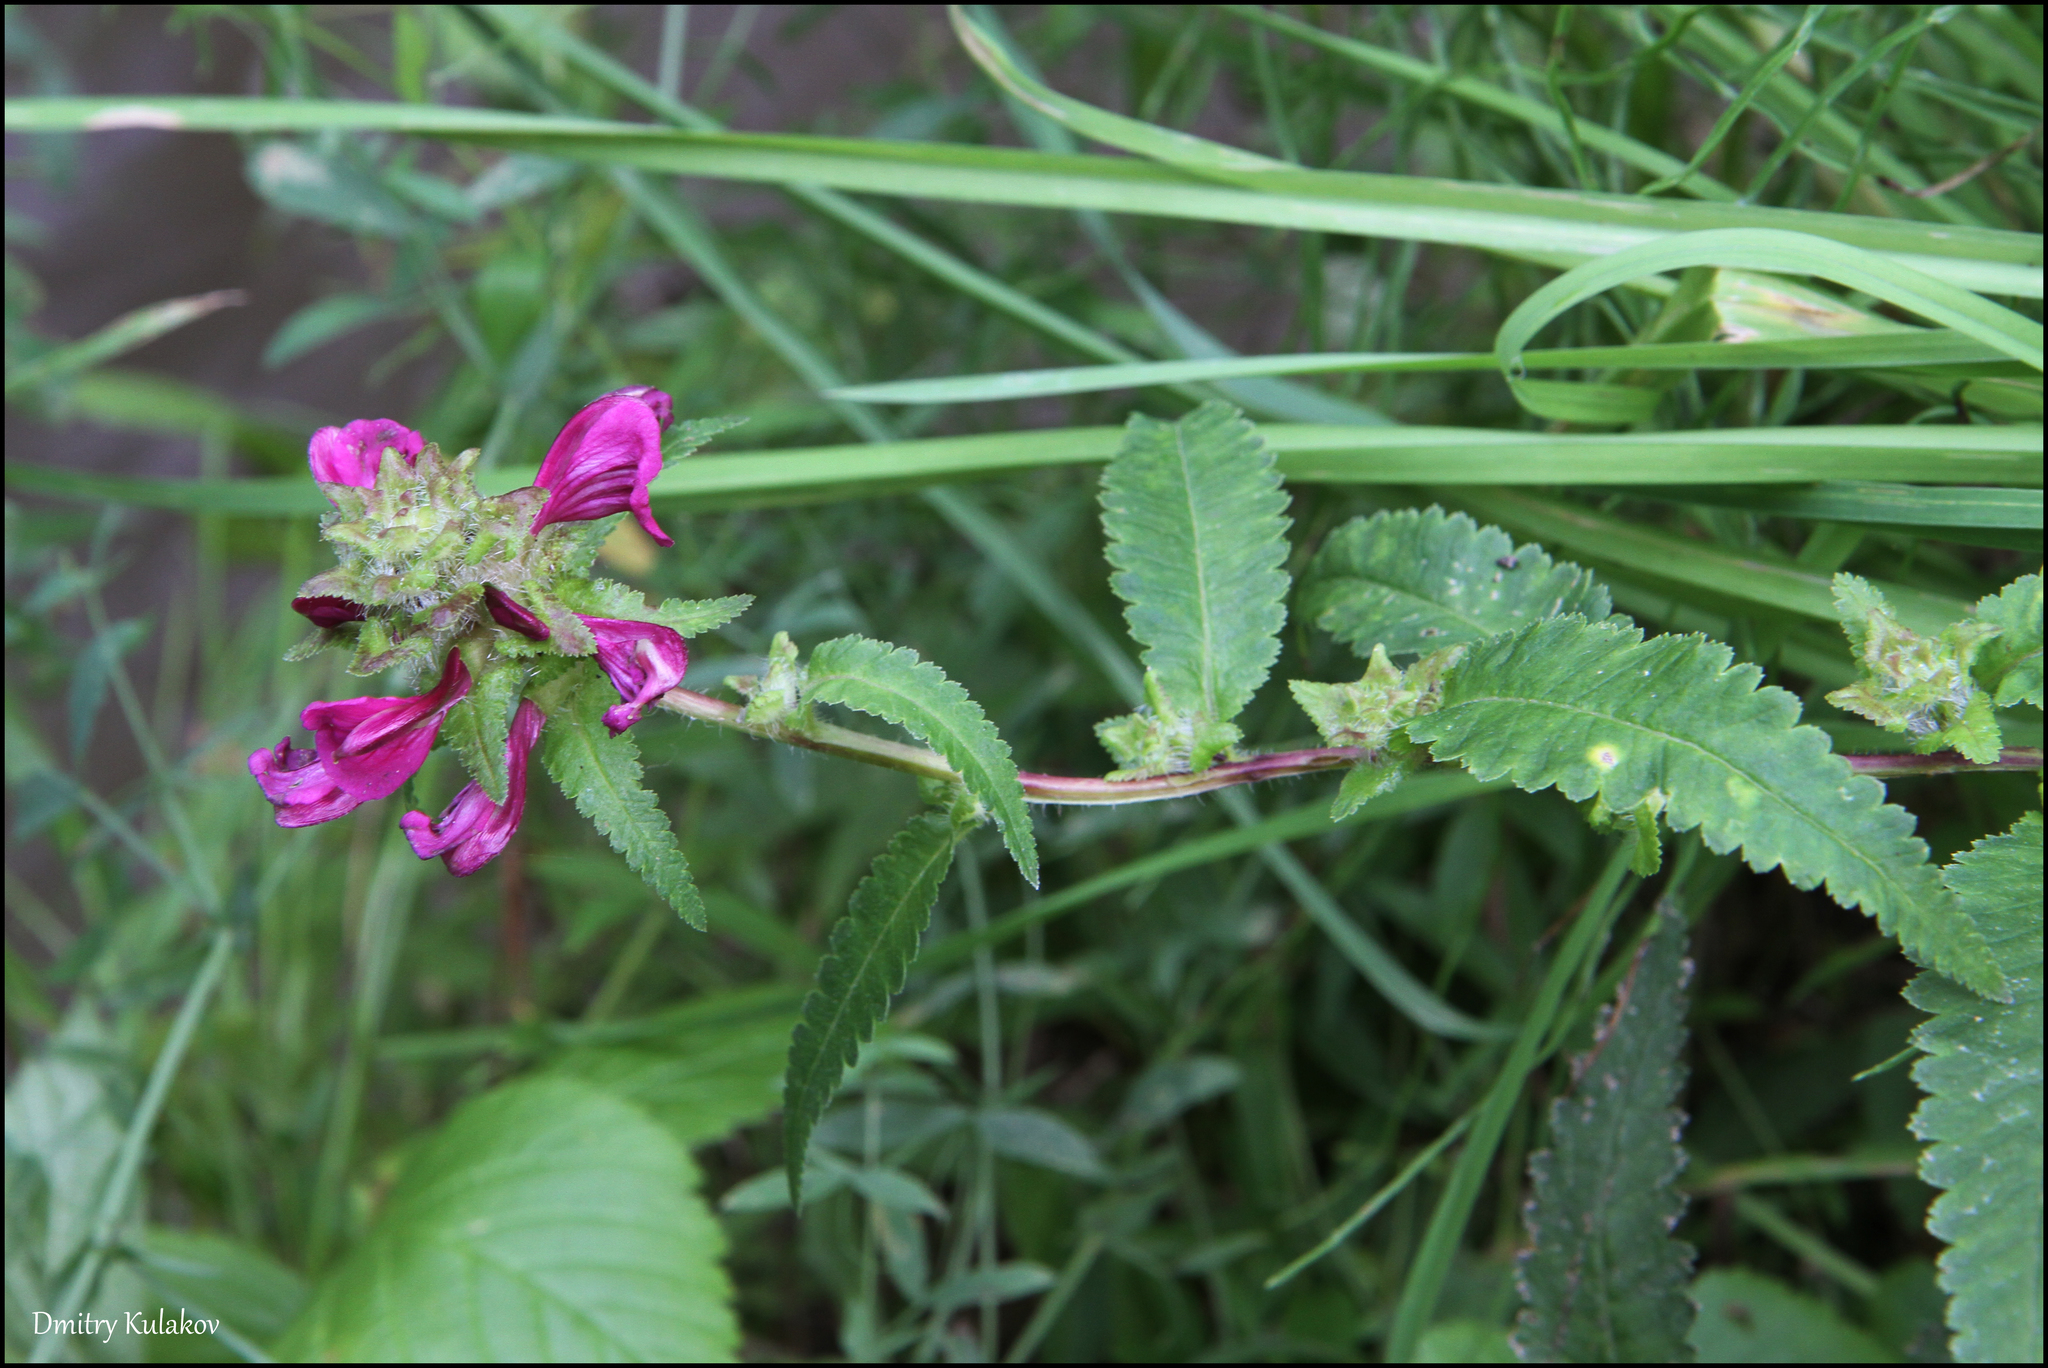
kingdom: Plantae
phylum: Tracheophyta
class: Magnoliopsida
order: Lamiales
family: Orobanchaceae
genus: Pedicularis
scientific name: Pedicularis resupinata
